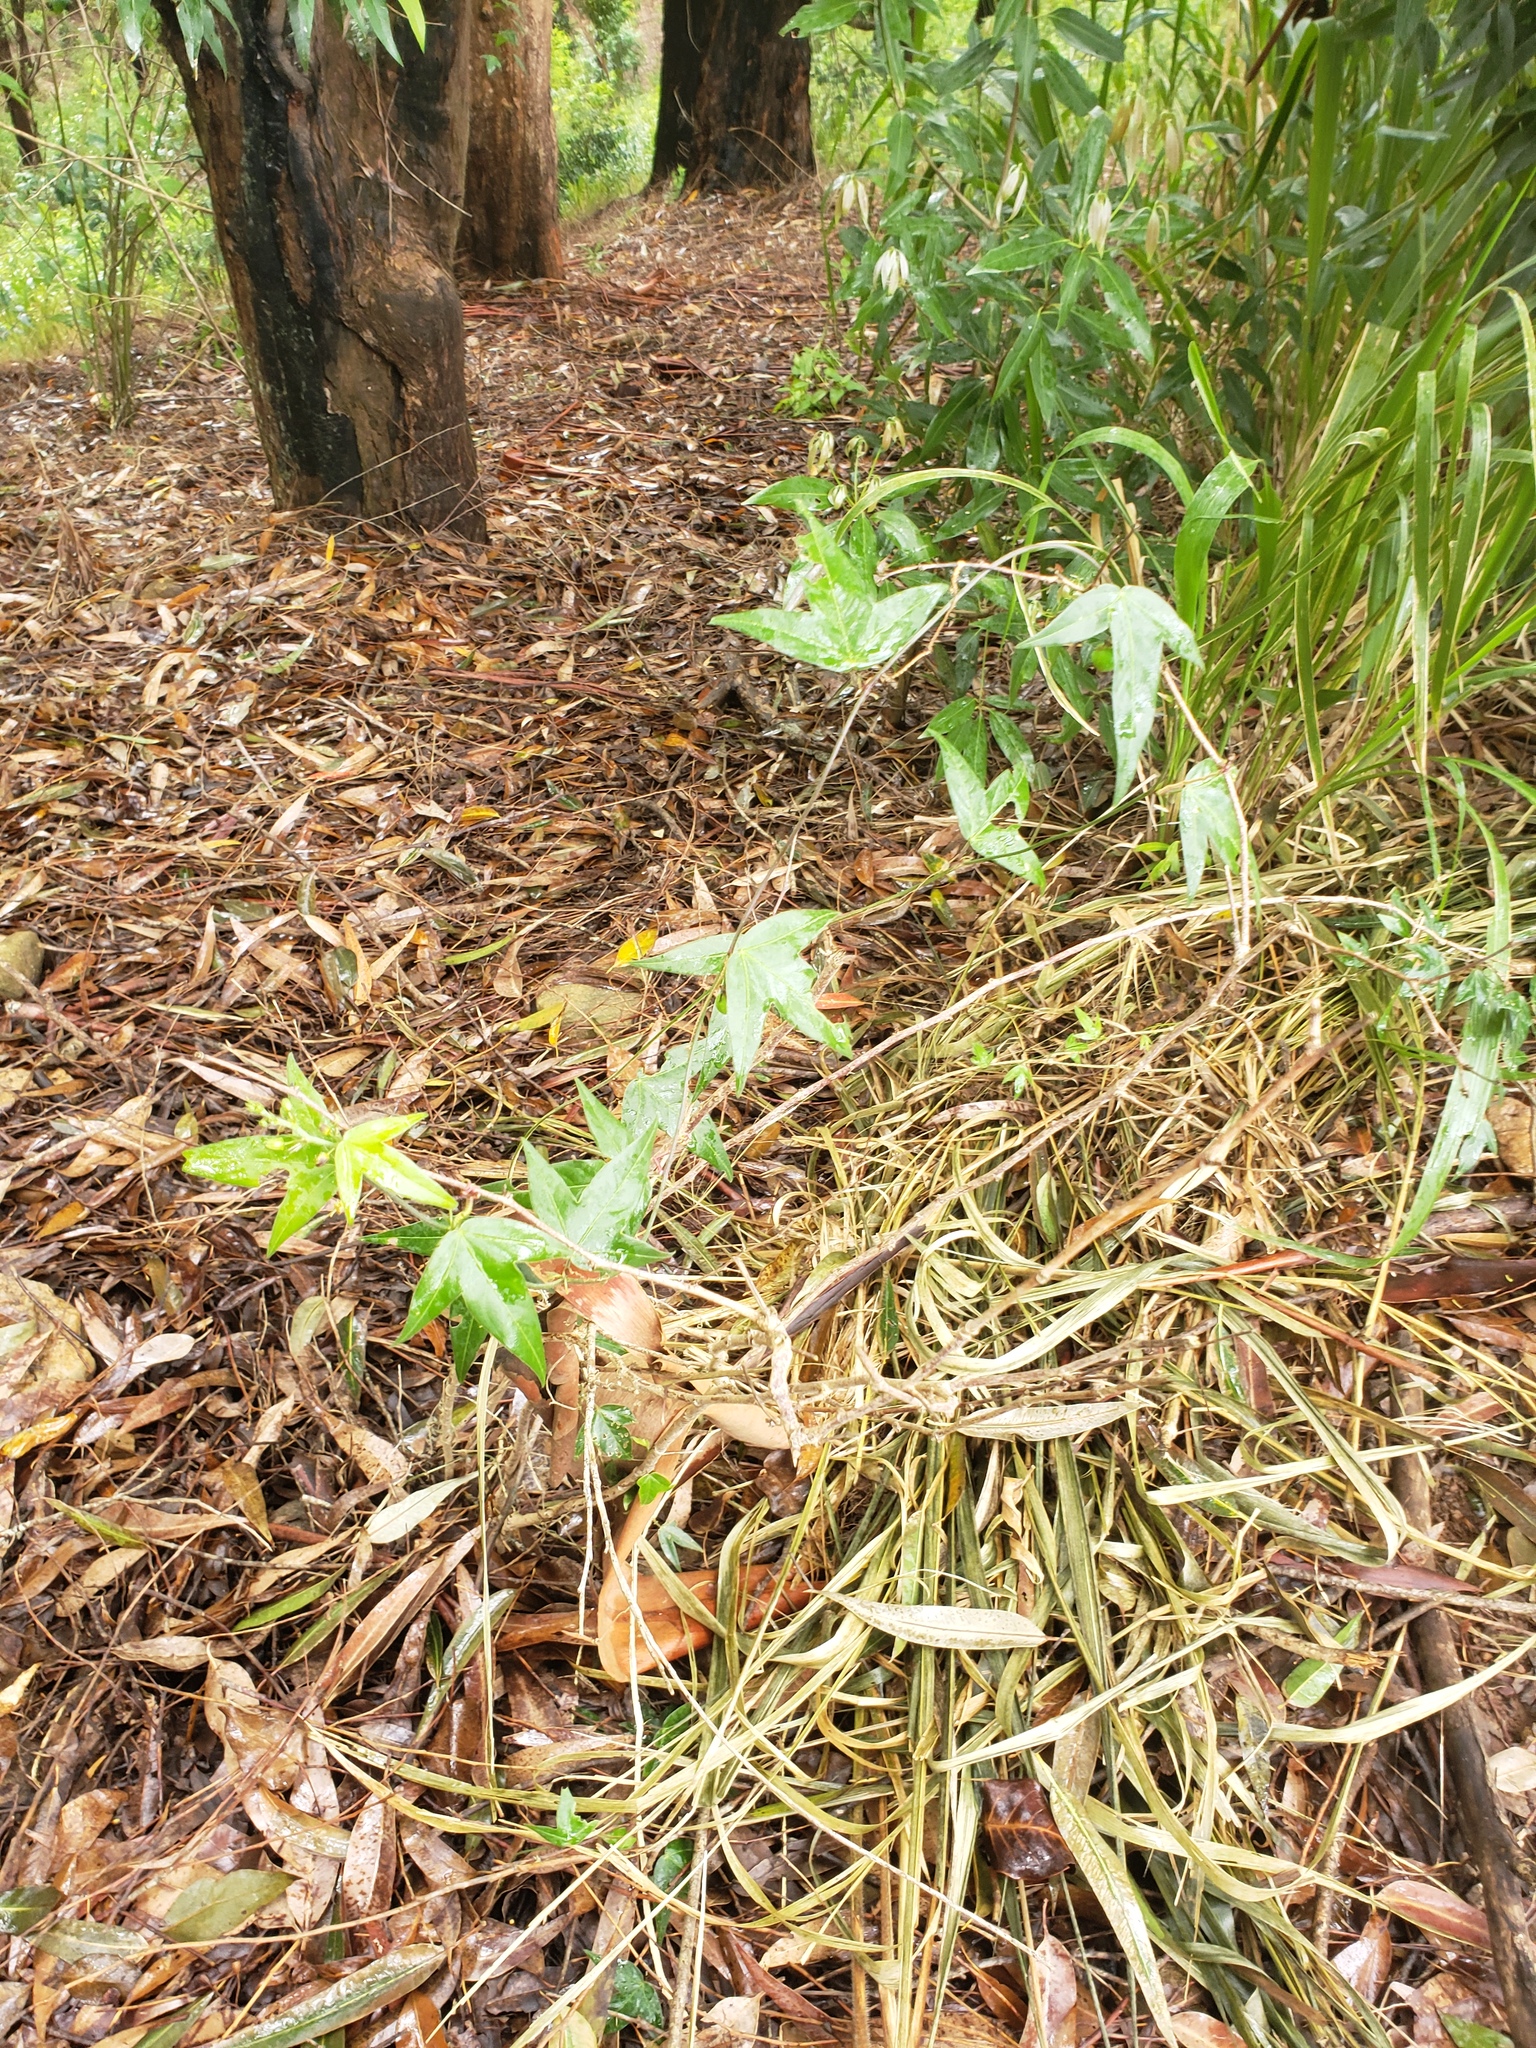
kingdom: Plantae
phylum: Tracheophyta
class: Magnoliopsida
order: Malpighiales
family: Passifloraceae
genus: Passiflora
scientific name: Passiflora suberosa
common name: Wild passionfruit
